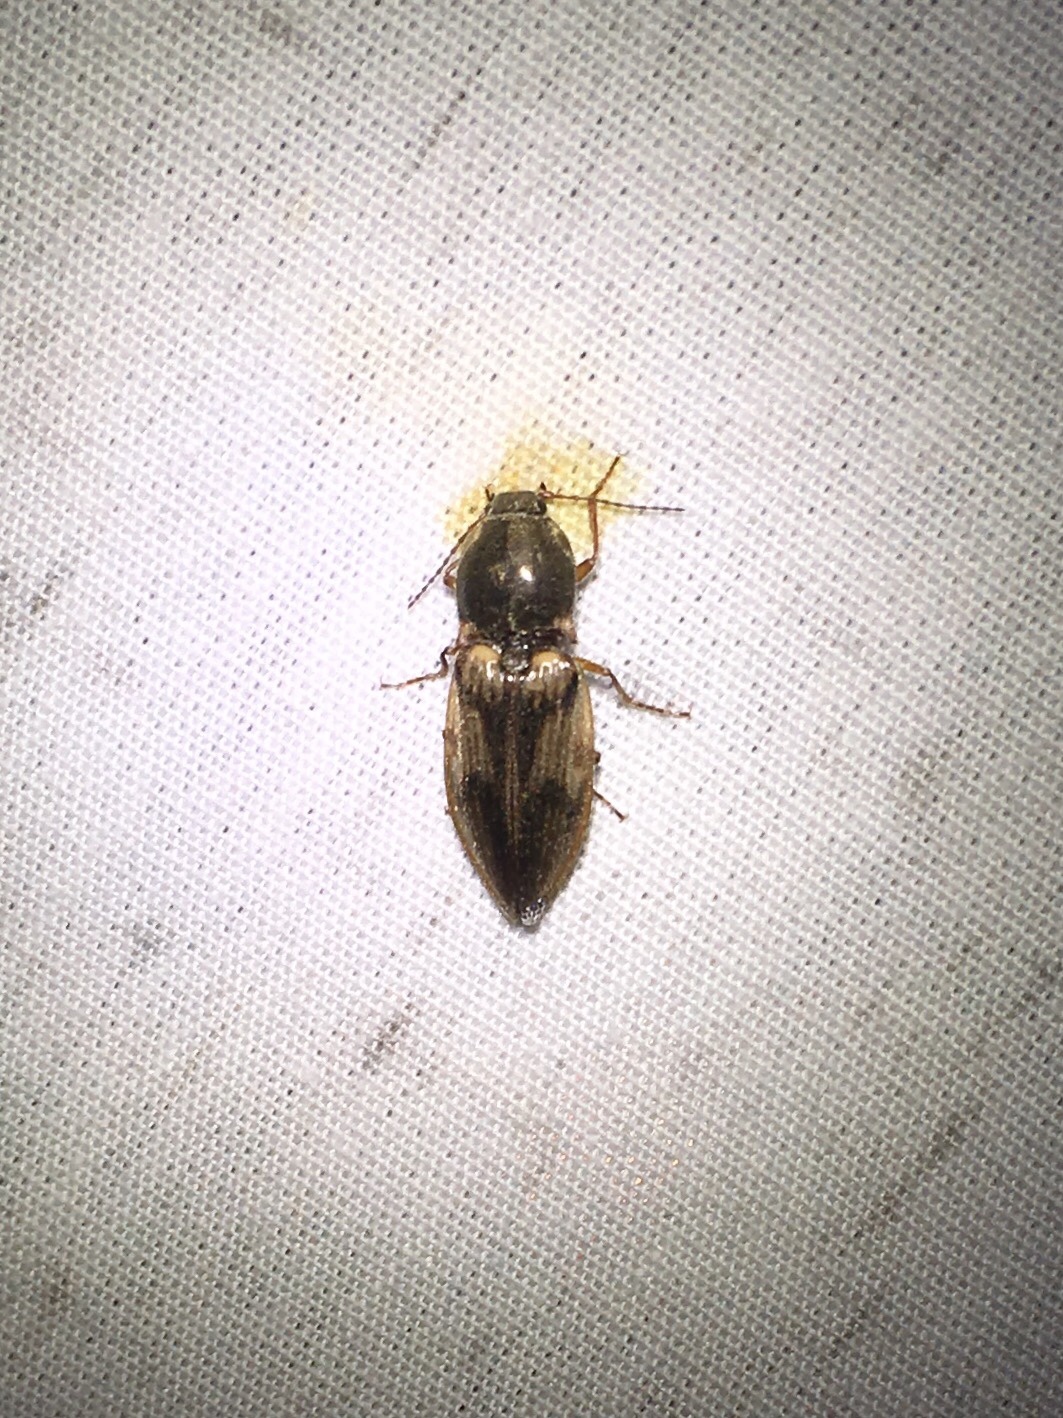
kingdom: Animalia
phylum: Arthropoda
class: Insecta
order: Coleoptera
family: Elateridae
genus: Stropenron
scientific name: Stropenron hieroglyphica
